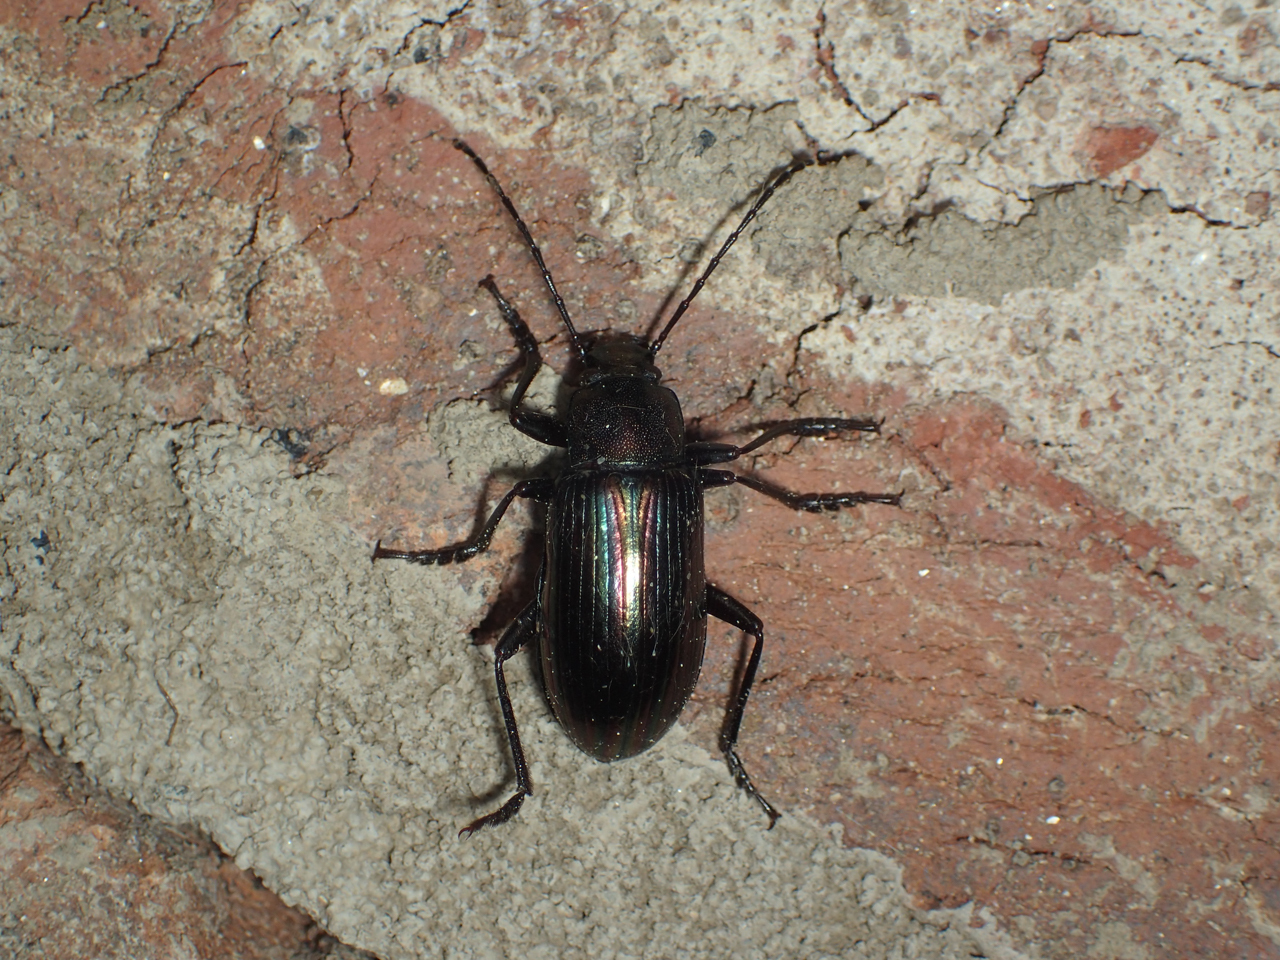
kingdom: Animalia
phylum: Arthropoda
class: Insecta
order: Coleoptera
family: Tenebrionidae
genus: Tarpela
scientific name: Tarpela micans
